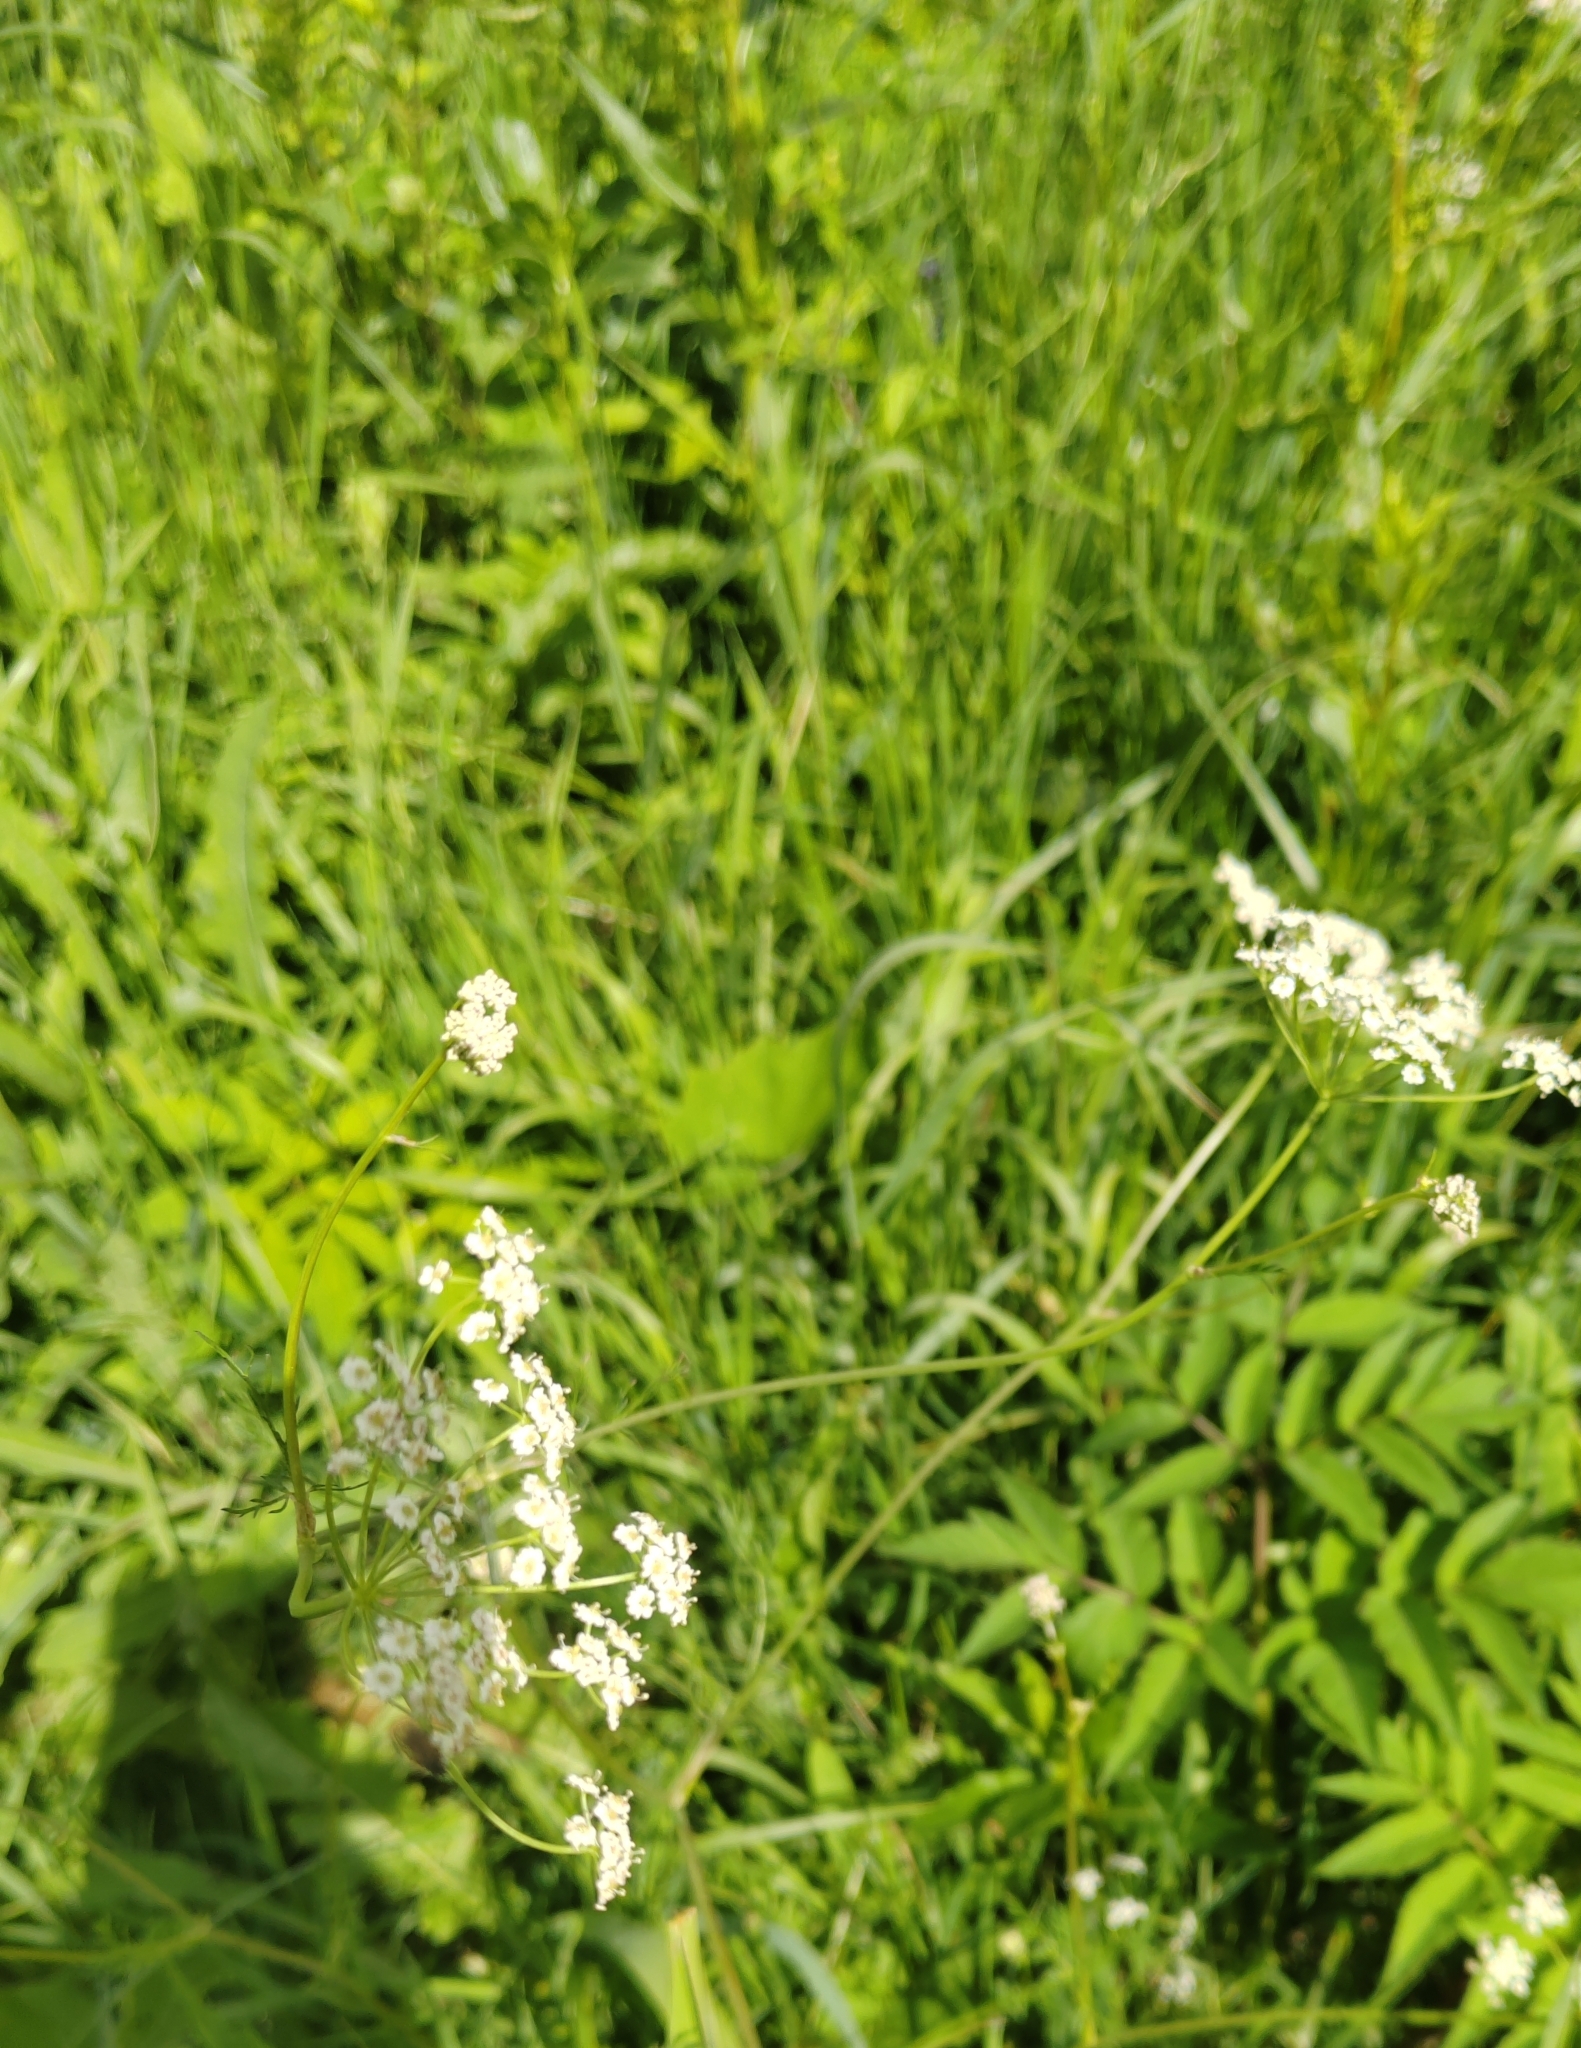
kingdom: Plantae
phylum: Tracheophyta
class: Magnoliopsida
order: Apiales
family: Apiaceae
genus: Carum
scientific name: Carum carvi
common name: Caraway
